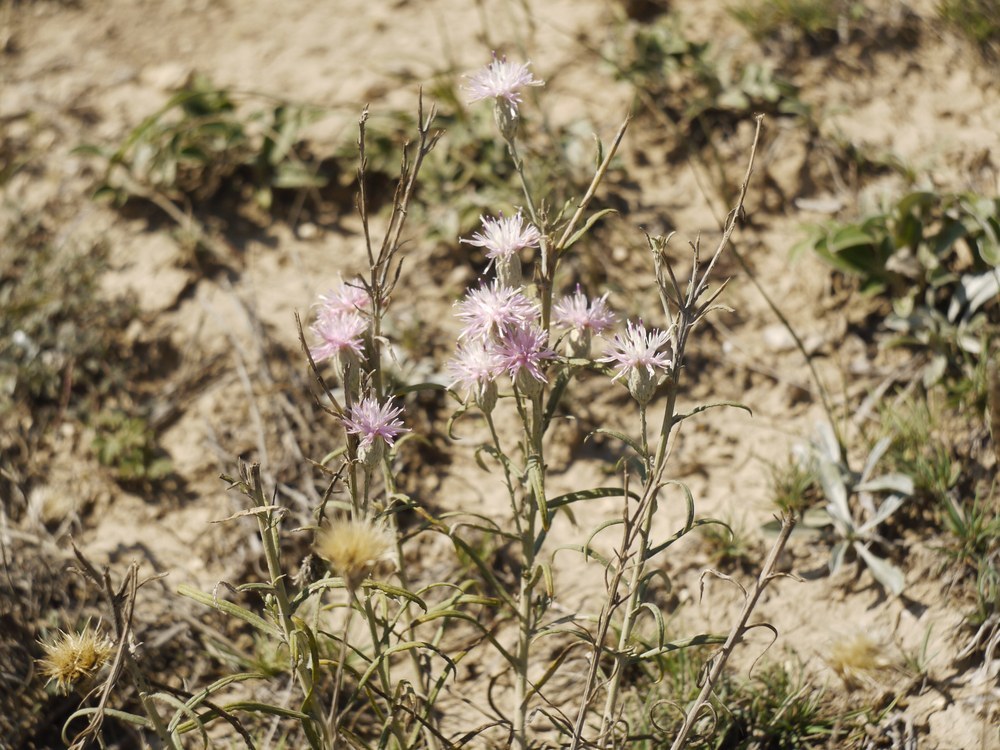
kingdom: Plantae
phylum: Tracheophyta
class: Magnoliopsida
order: Asterales
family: Asteraceae
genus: Jurinea
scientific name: Jurinea stoechadifolia
